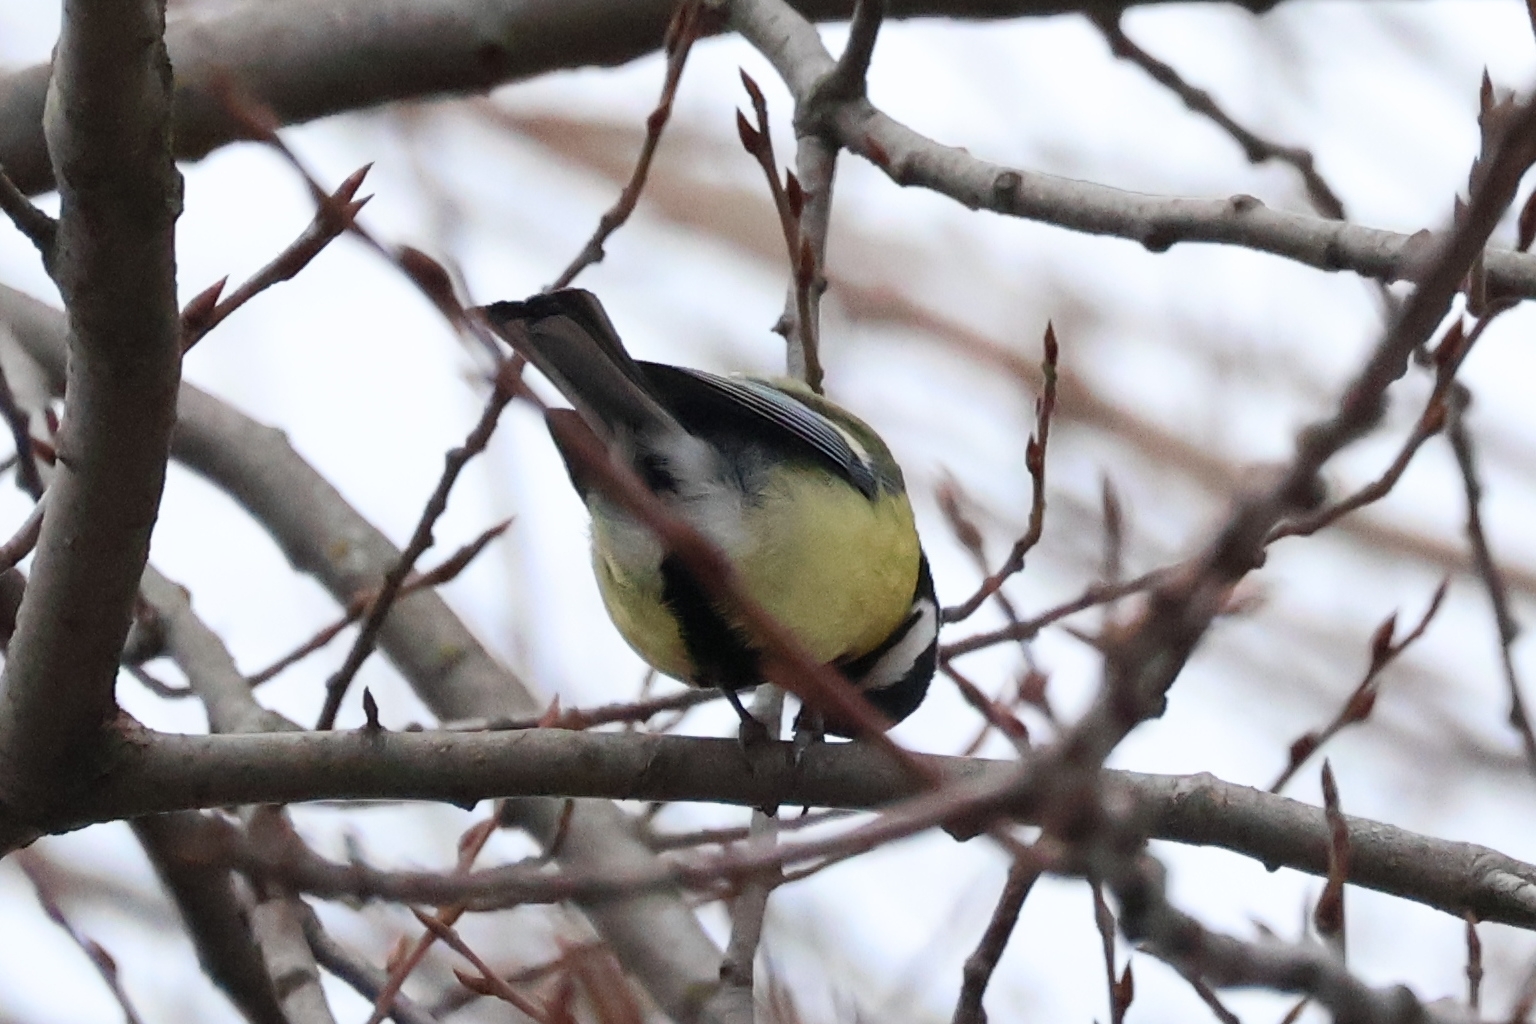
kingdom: Animalia
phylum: Chordata
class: Aves
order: Passeriformes
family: Paridae
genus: Parus
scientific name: Parus major
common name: Great tit
